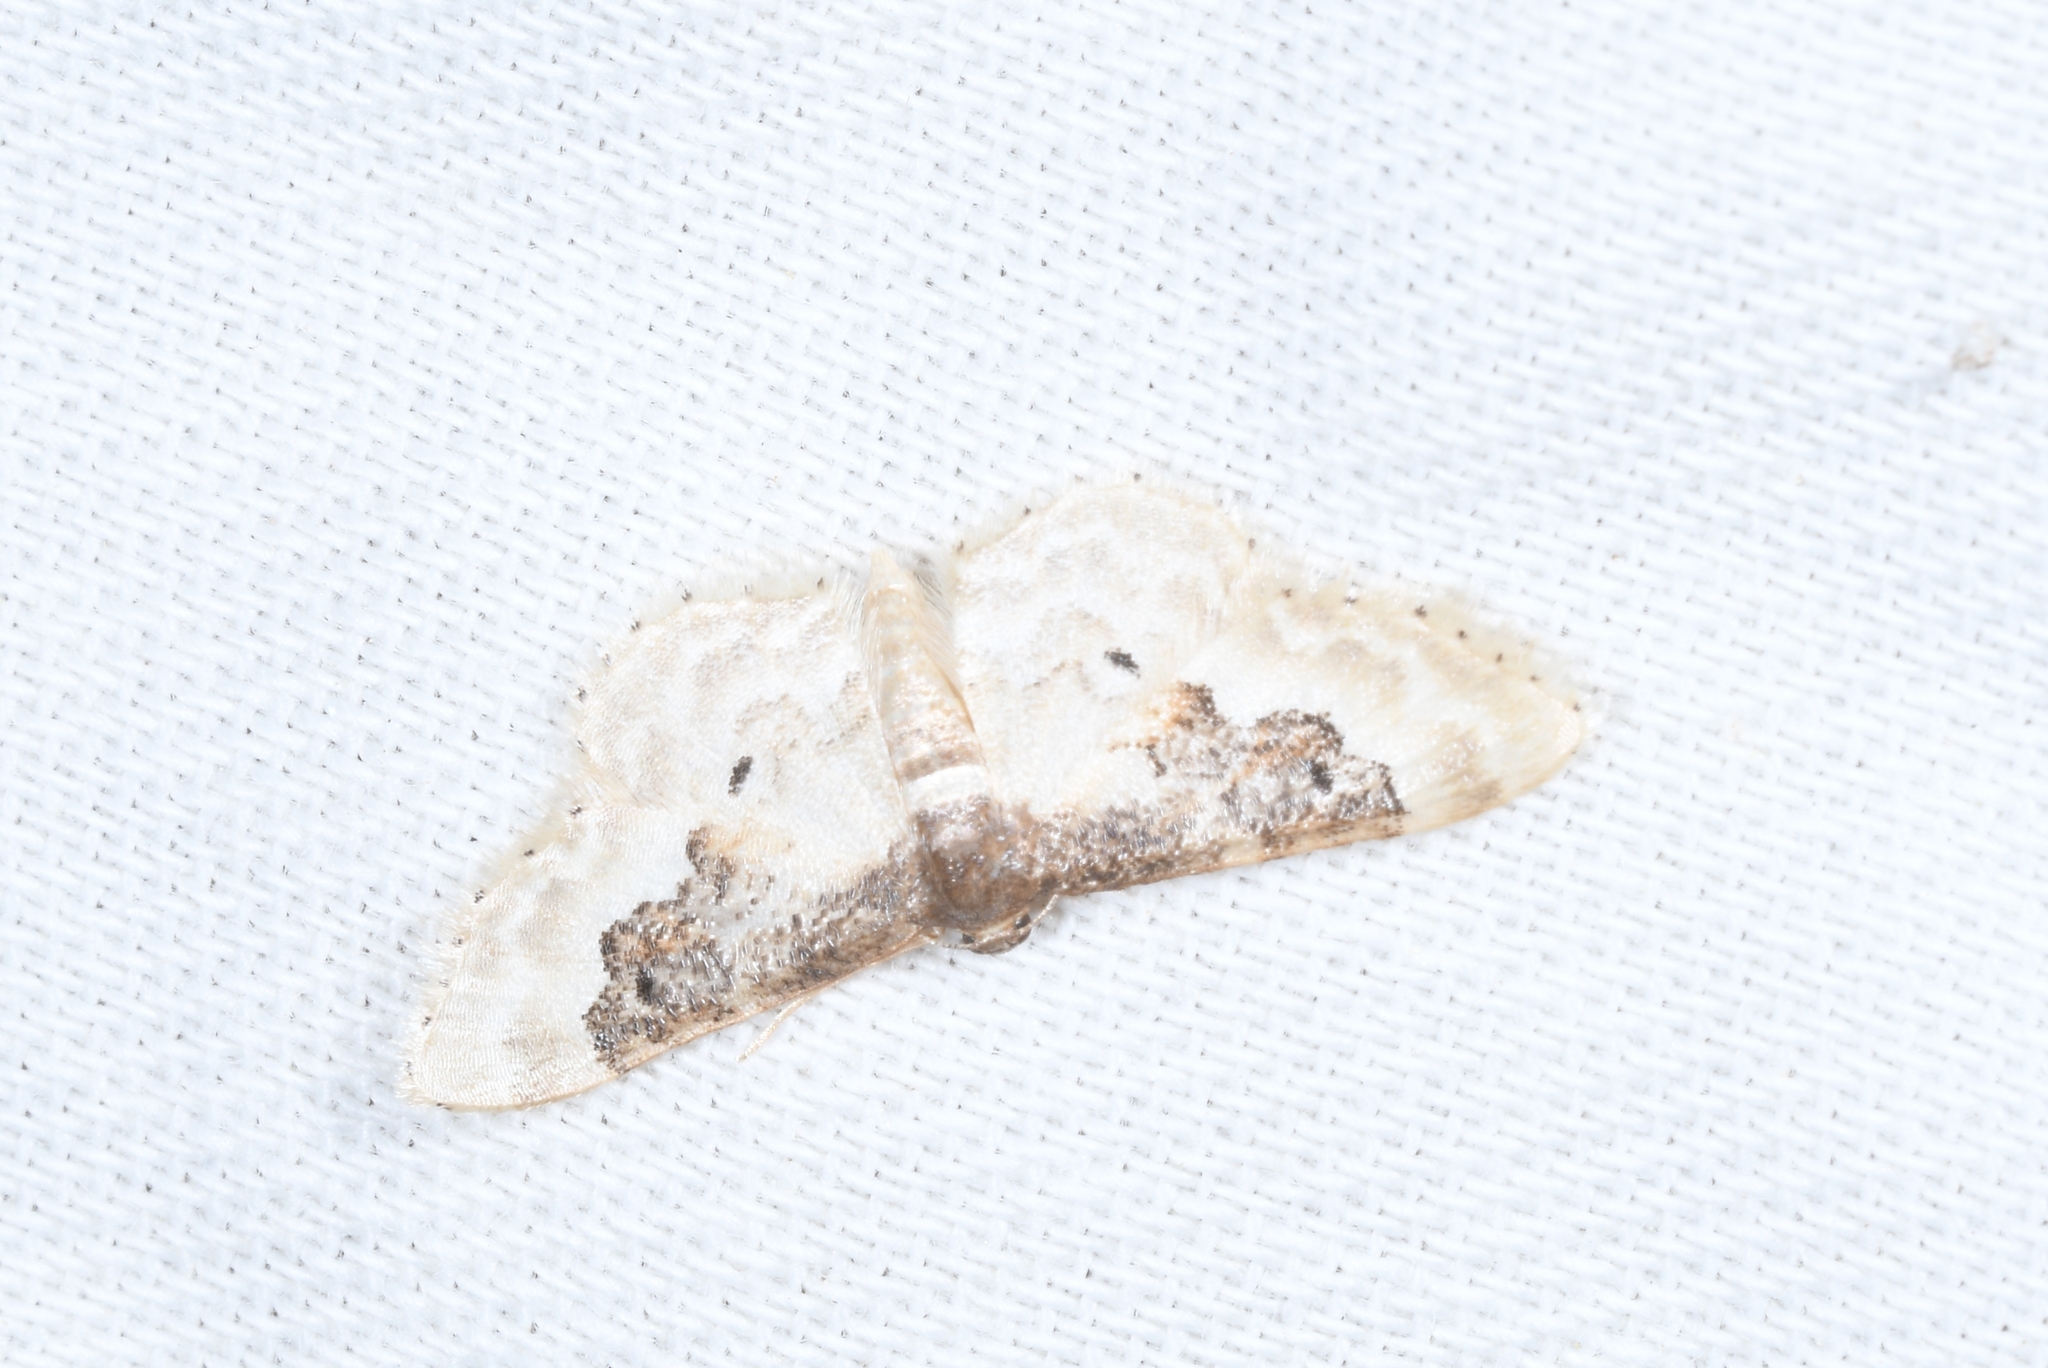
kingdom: Animalia
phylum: Arthropoda
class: Insecta
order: Lepidoptera
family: Geometridae
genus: Idaea
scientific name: Idaea rusticata
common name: Least carpet
